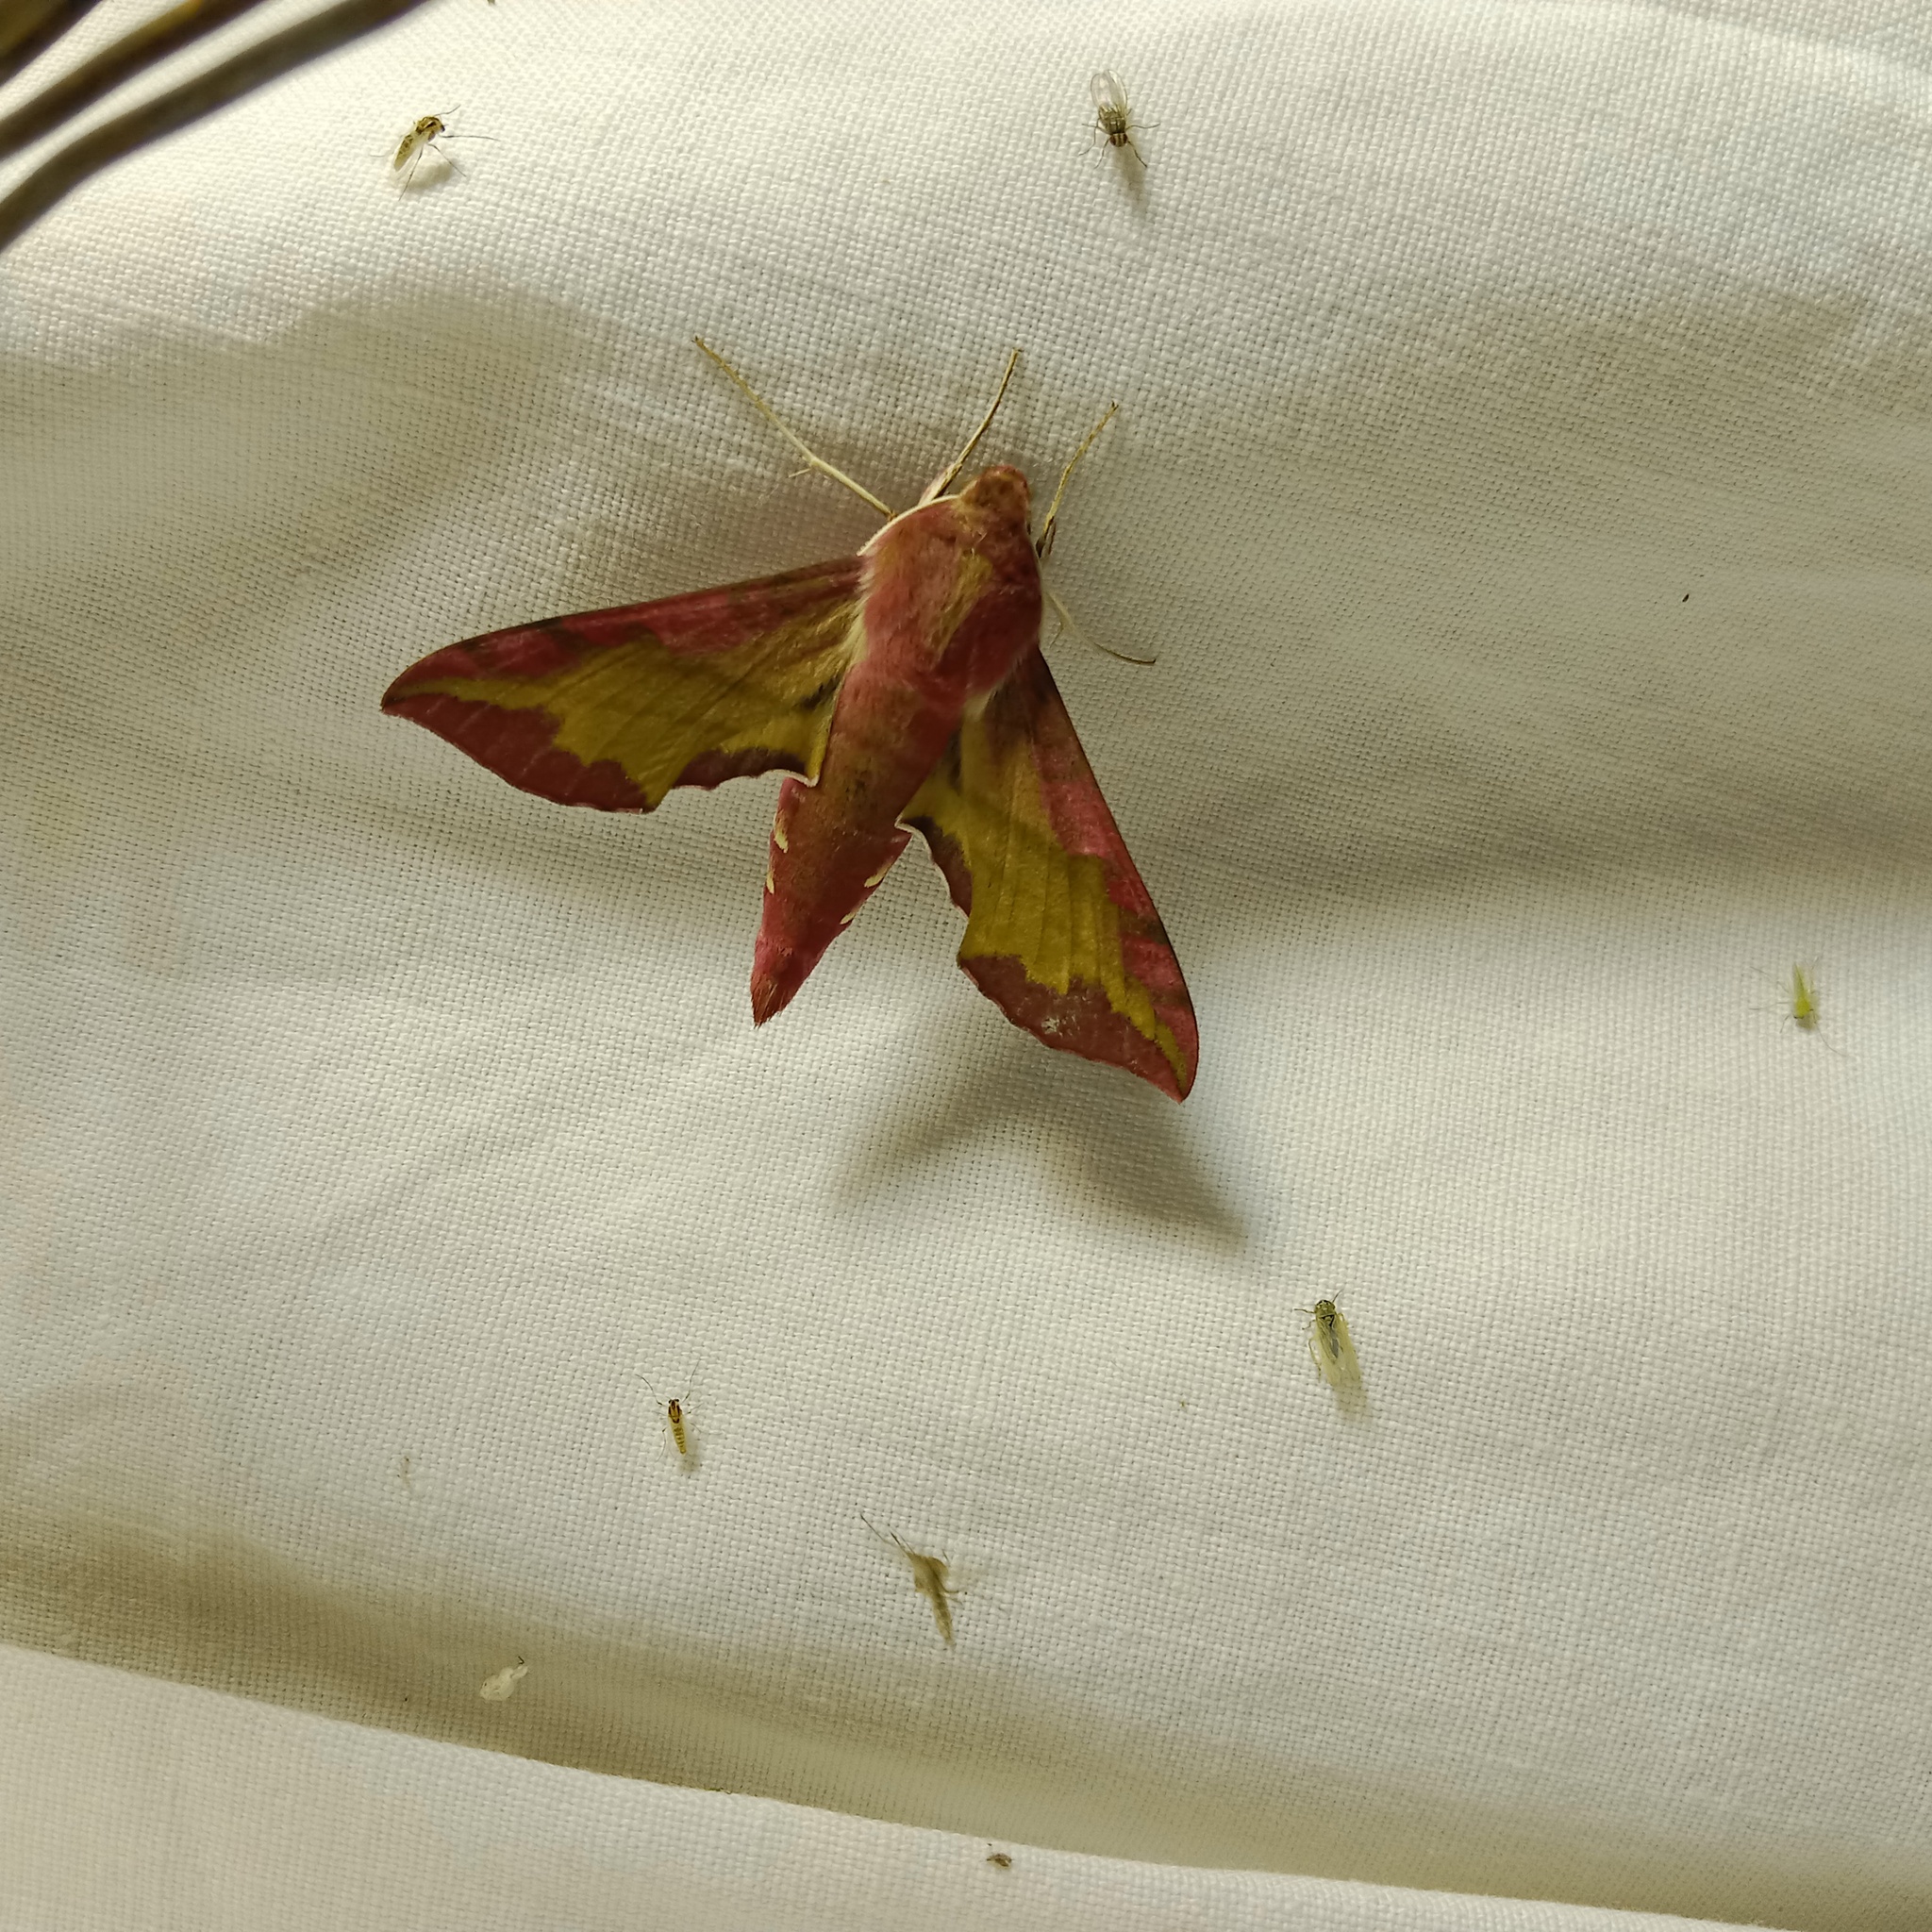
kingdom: Animalia
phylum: Arthropoda
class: Insecta
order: Lepidoptera
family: Sphingidae
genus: Deilephila
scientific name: Deilephila porcellus
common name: Small elephant hawk-moth
